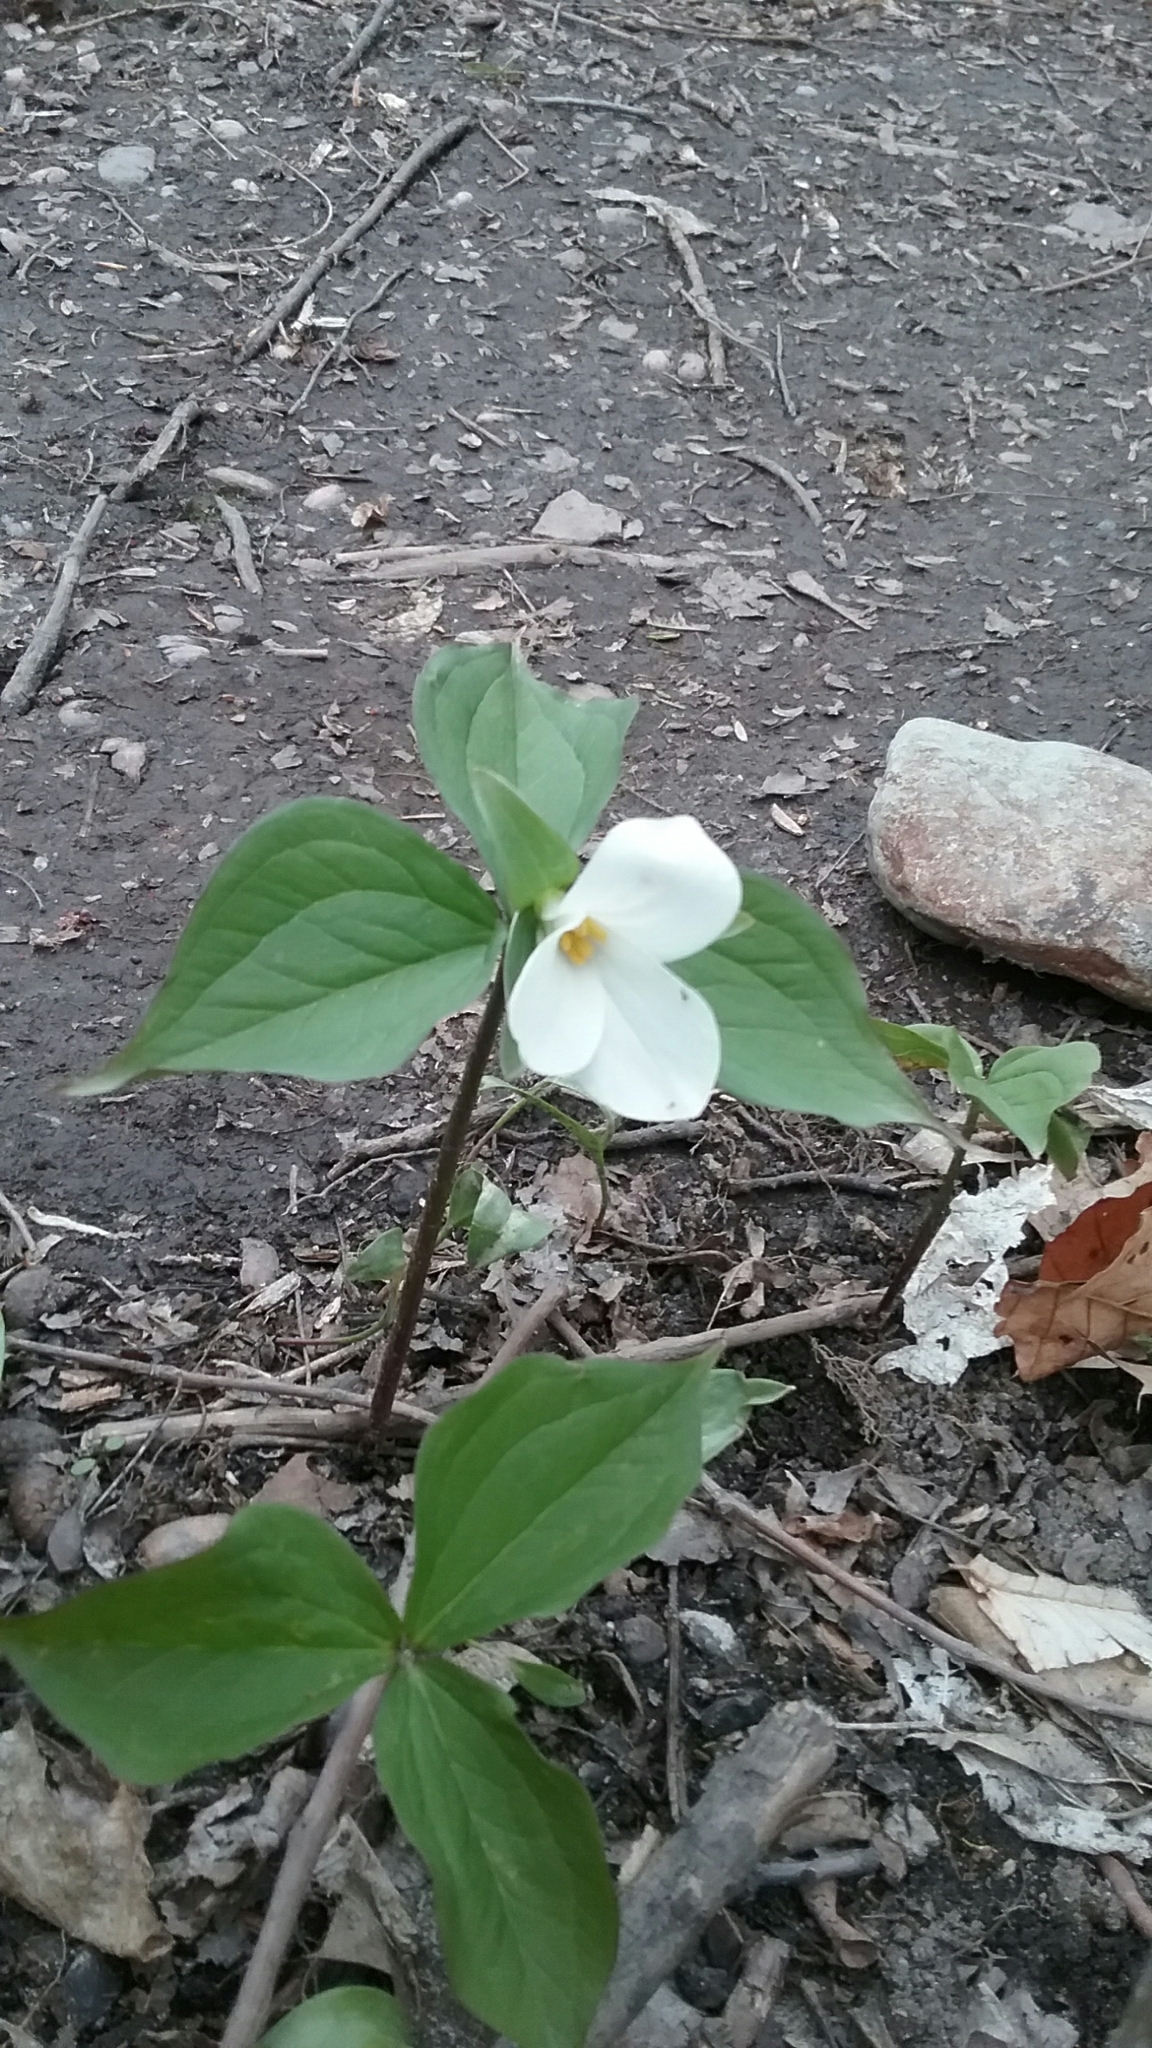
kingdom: Plantae
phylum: Tracheophyta
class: Liliopsida
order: Liliales
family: Melanthiaceae
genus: Trillium
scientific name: Trillium grandiflorum
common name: Great white trillium
